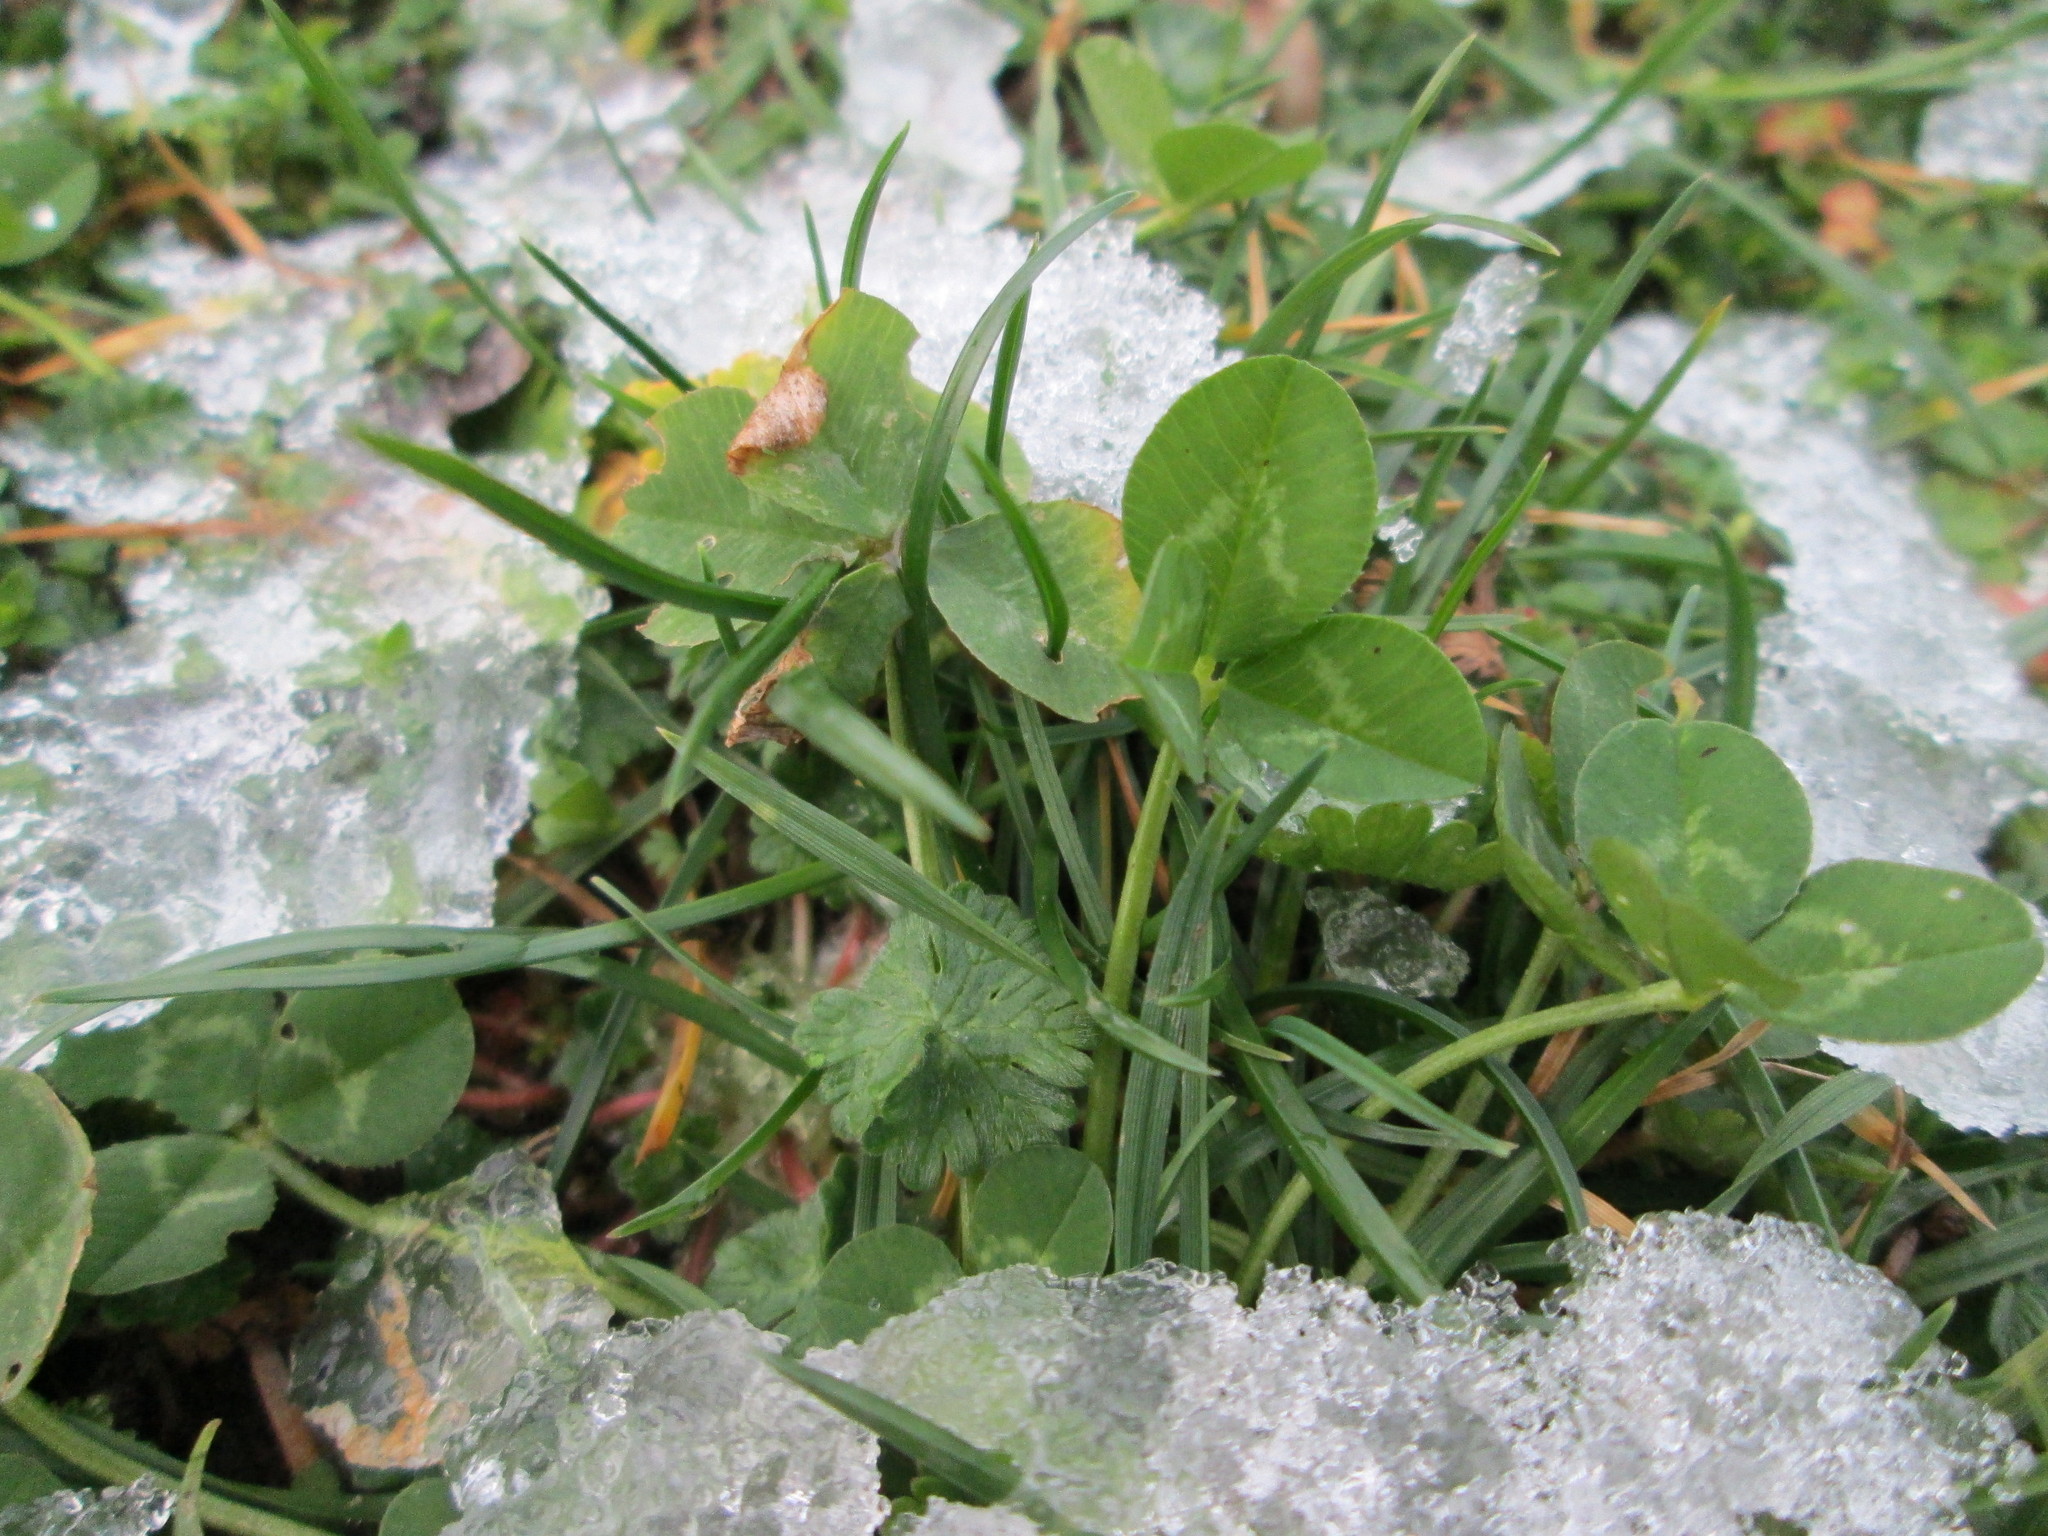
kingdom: Plantae
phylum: Tracheophyta
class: Magnoliopsida
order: Fabales
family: Fabaceae
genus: Trifolium
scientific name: Trifolium repens
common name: White clover
